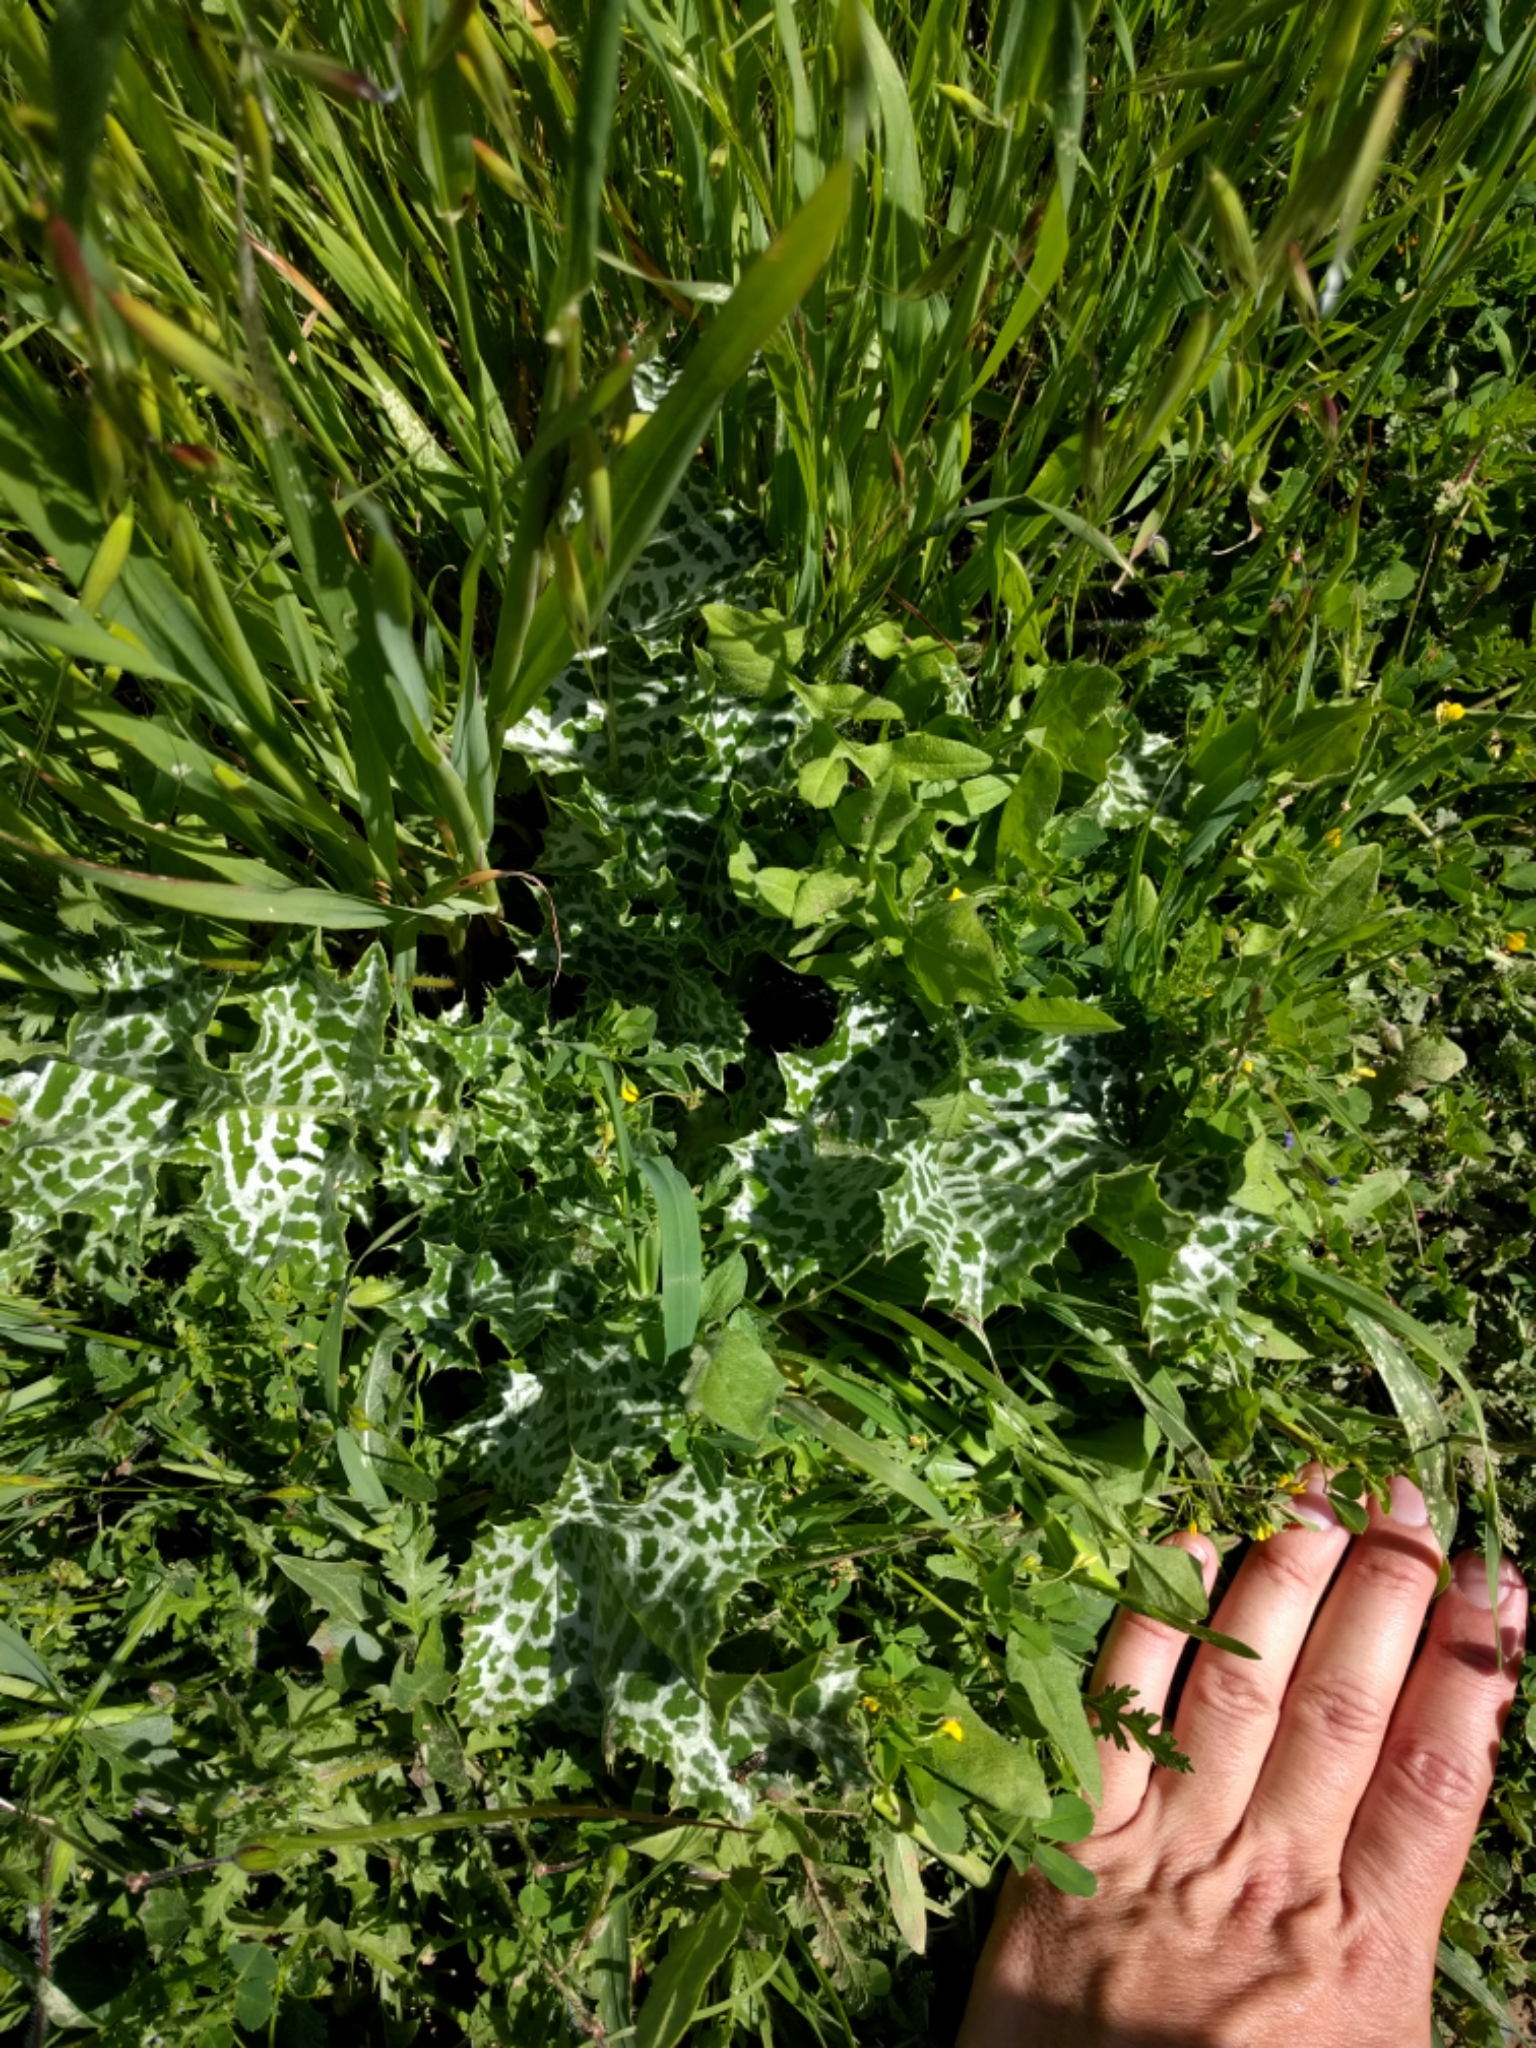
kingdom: Plantae
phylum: Tracheophyta
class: Magnoliopsida
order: Asterales
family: Asteraceae
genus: Silybum
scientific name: Silybum marianum
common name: Milk thistle
